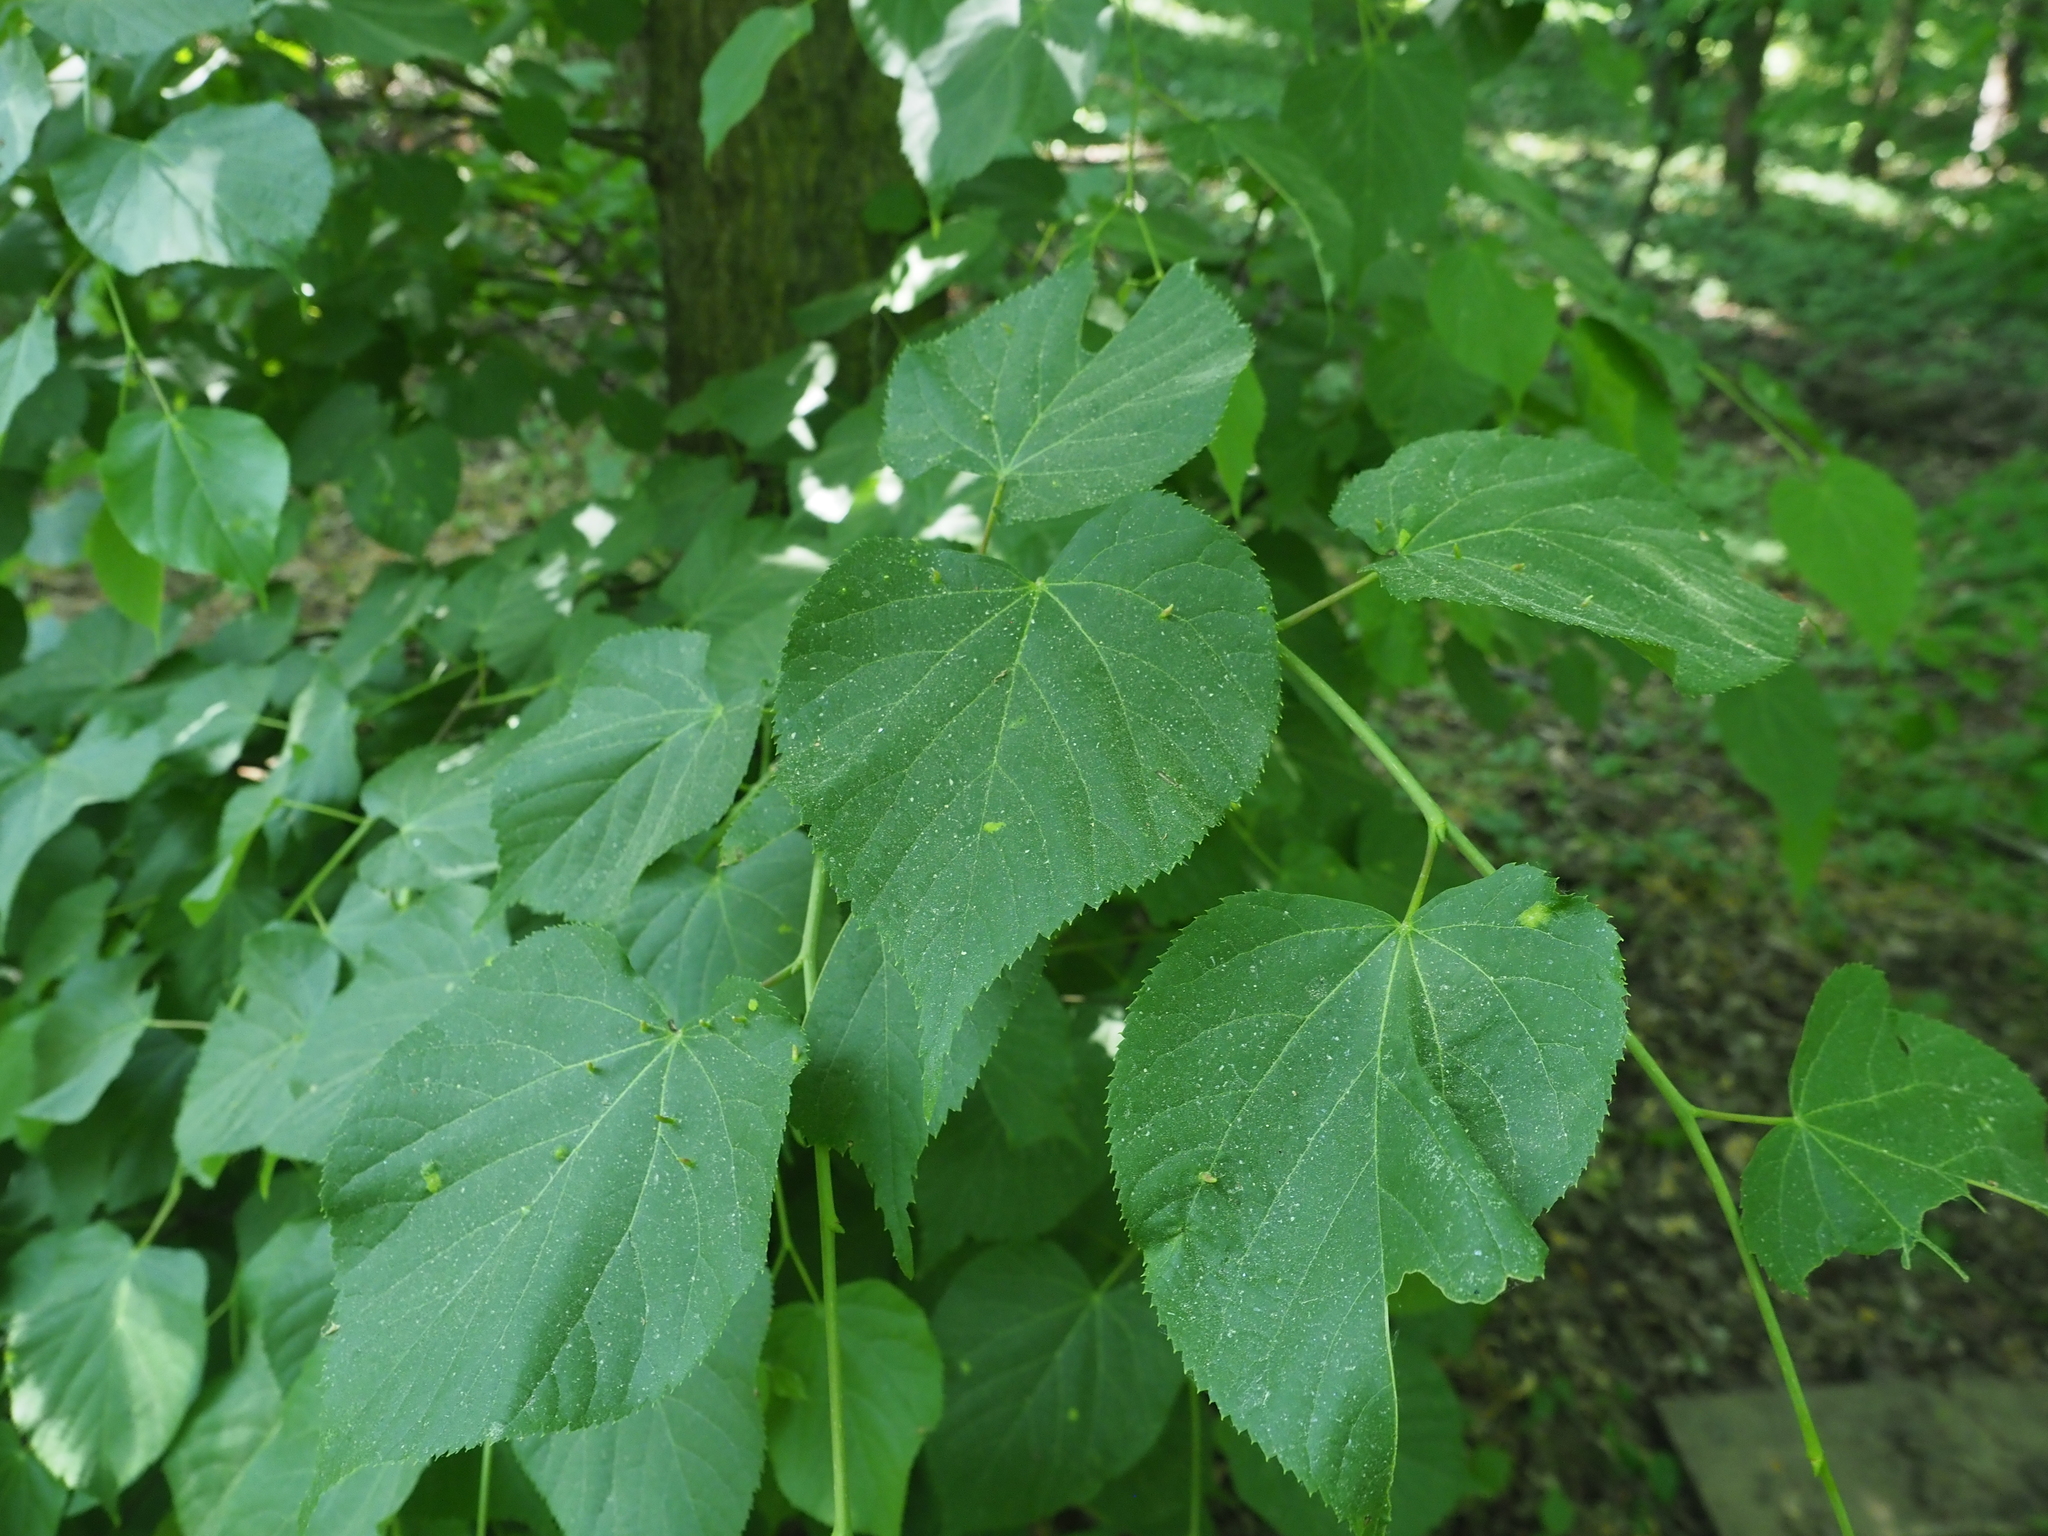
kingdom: Plantae
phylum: Tracheophyta
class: Magnoliopsida
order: Malvales
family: Malvaceae
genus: Tilia
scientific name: Tilia cordata
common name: Small-leaved lime
